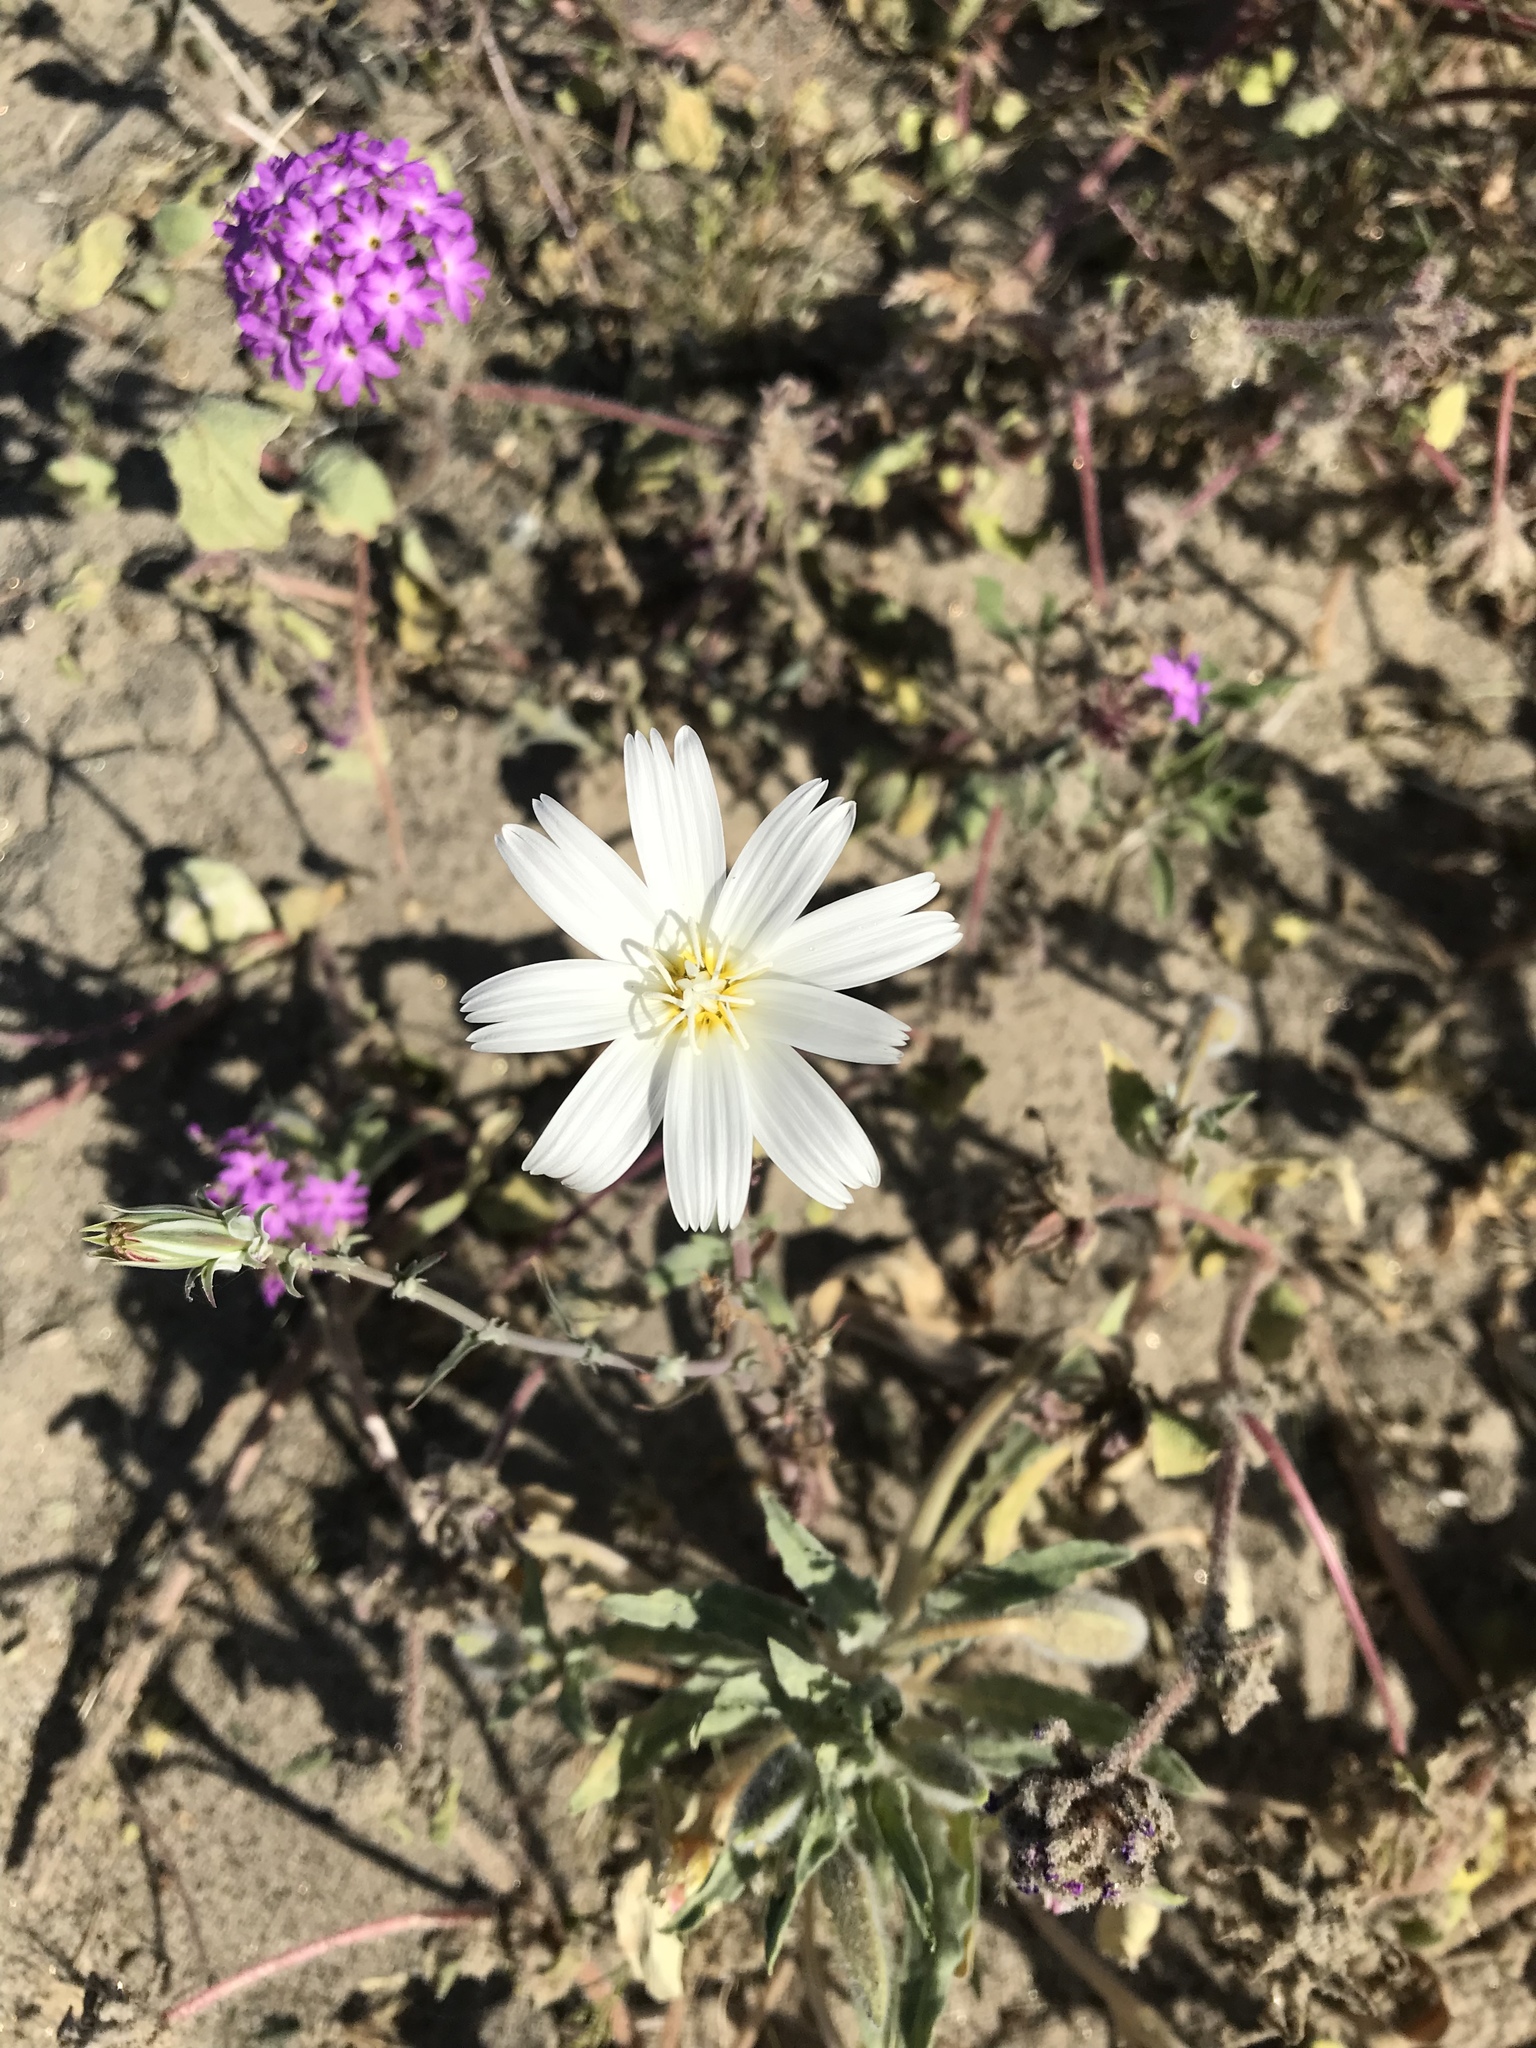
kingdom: Plantae
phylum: Tracheophyta
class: Magnoliopsida
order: Asterales
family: Asteraceae
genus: Rafinesquia
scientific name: Rafinesquia neomexicana
